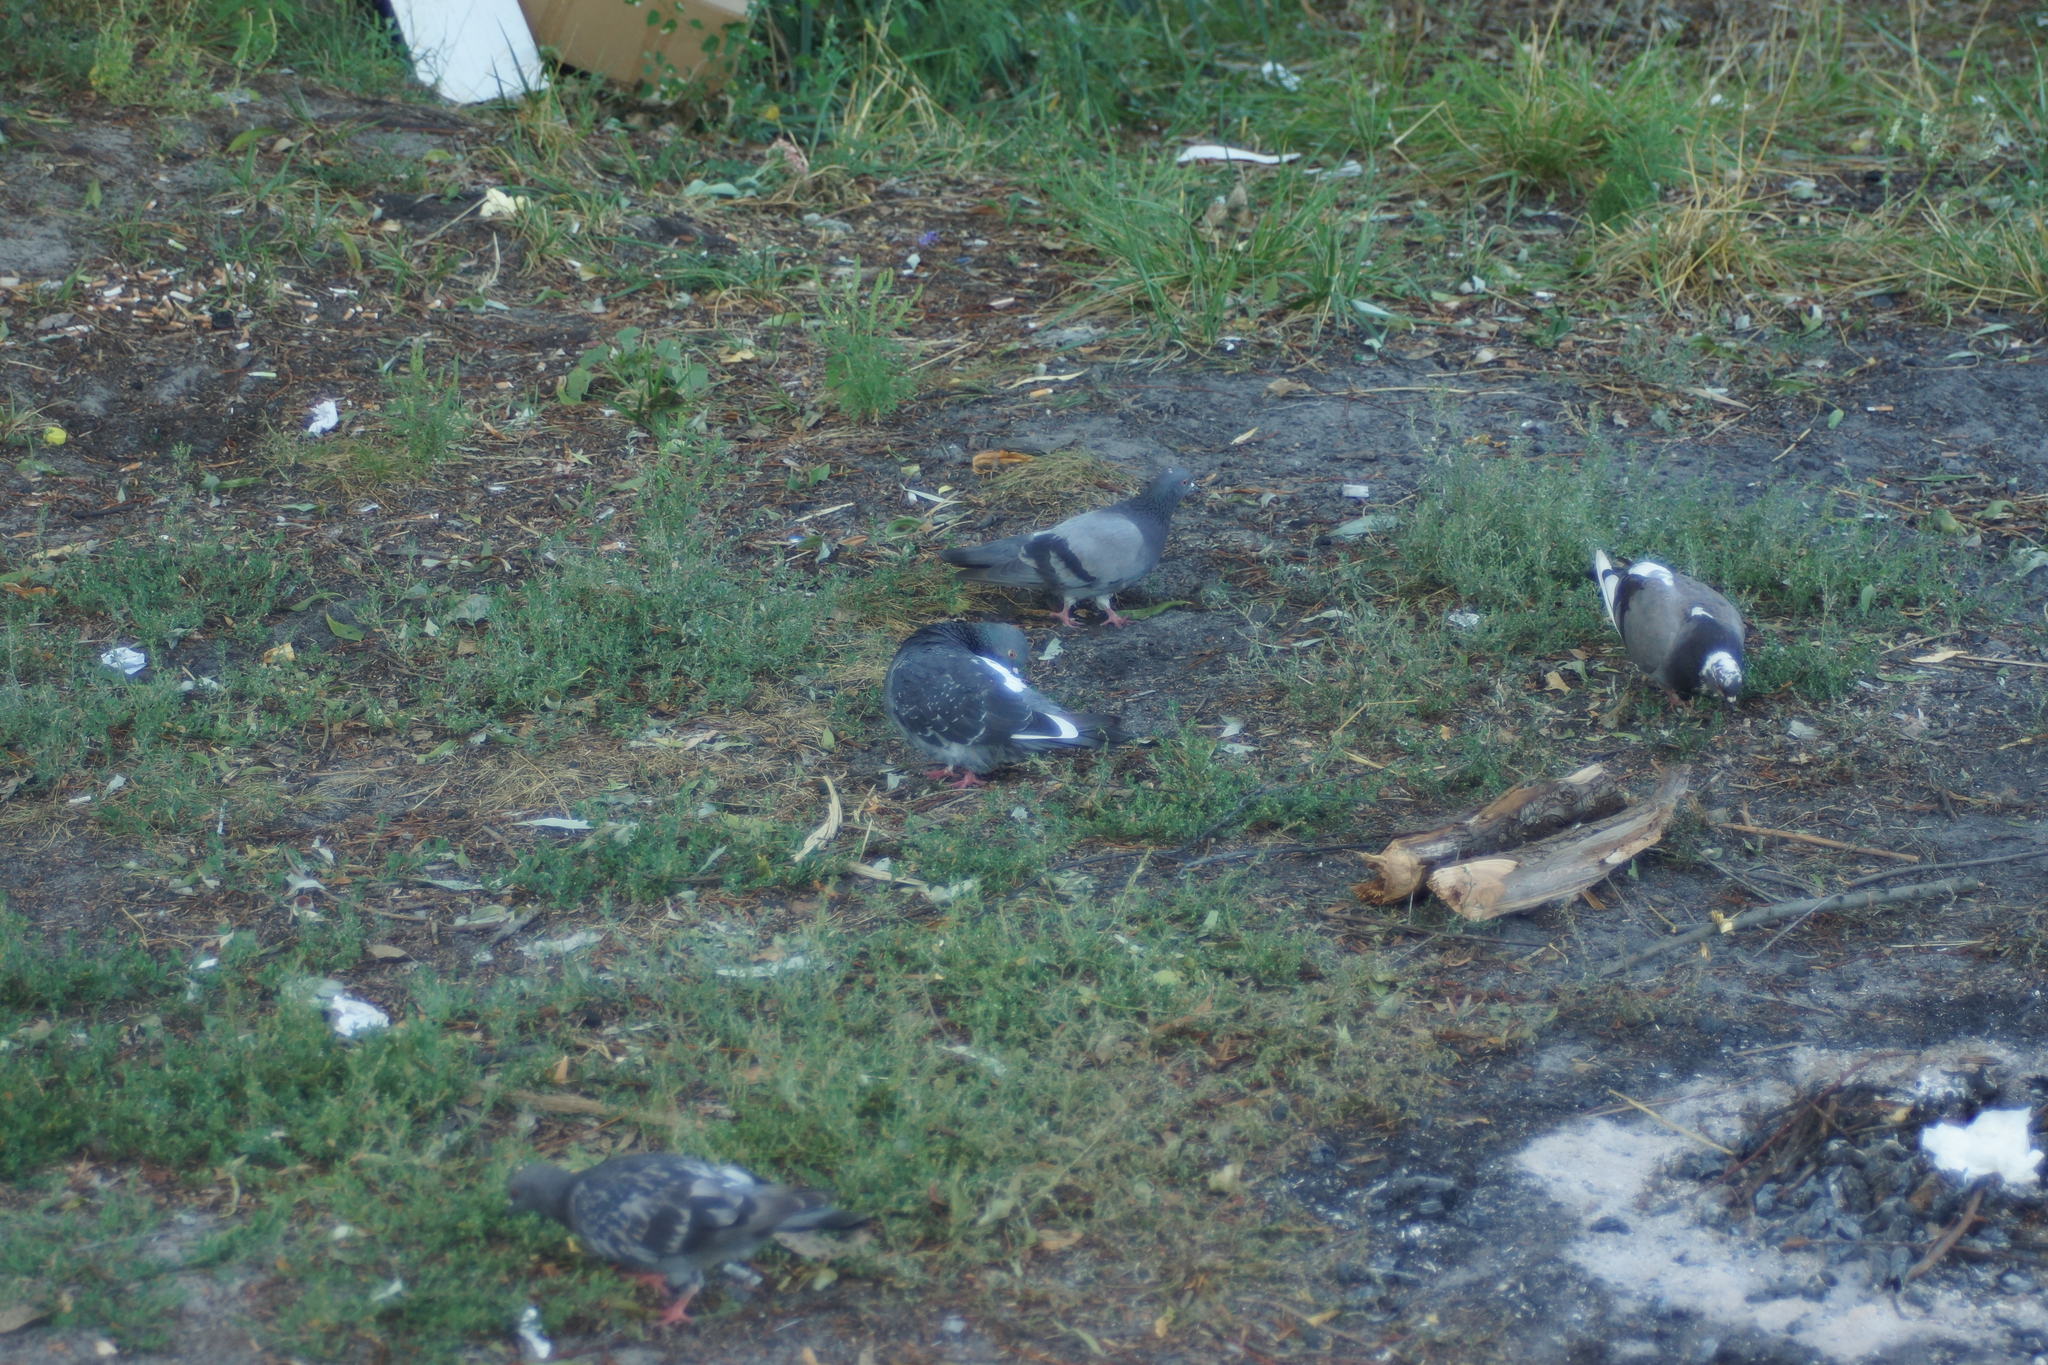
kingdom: Animalia
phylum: Chordata
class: Aves
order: Columbiformes
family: Columbidae
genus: Columba
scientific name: Columba livia
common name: Rock pigeon
